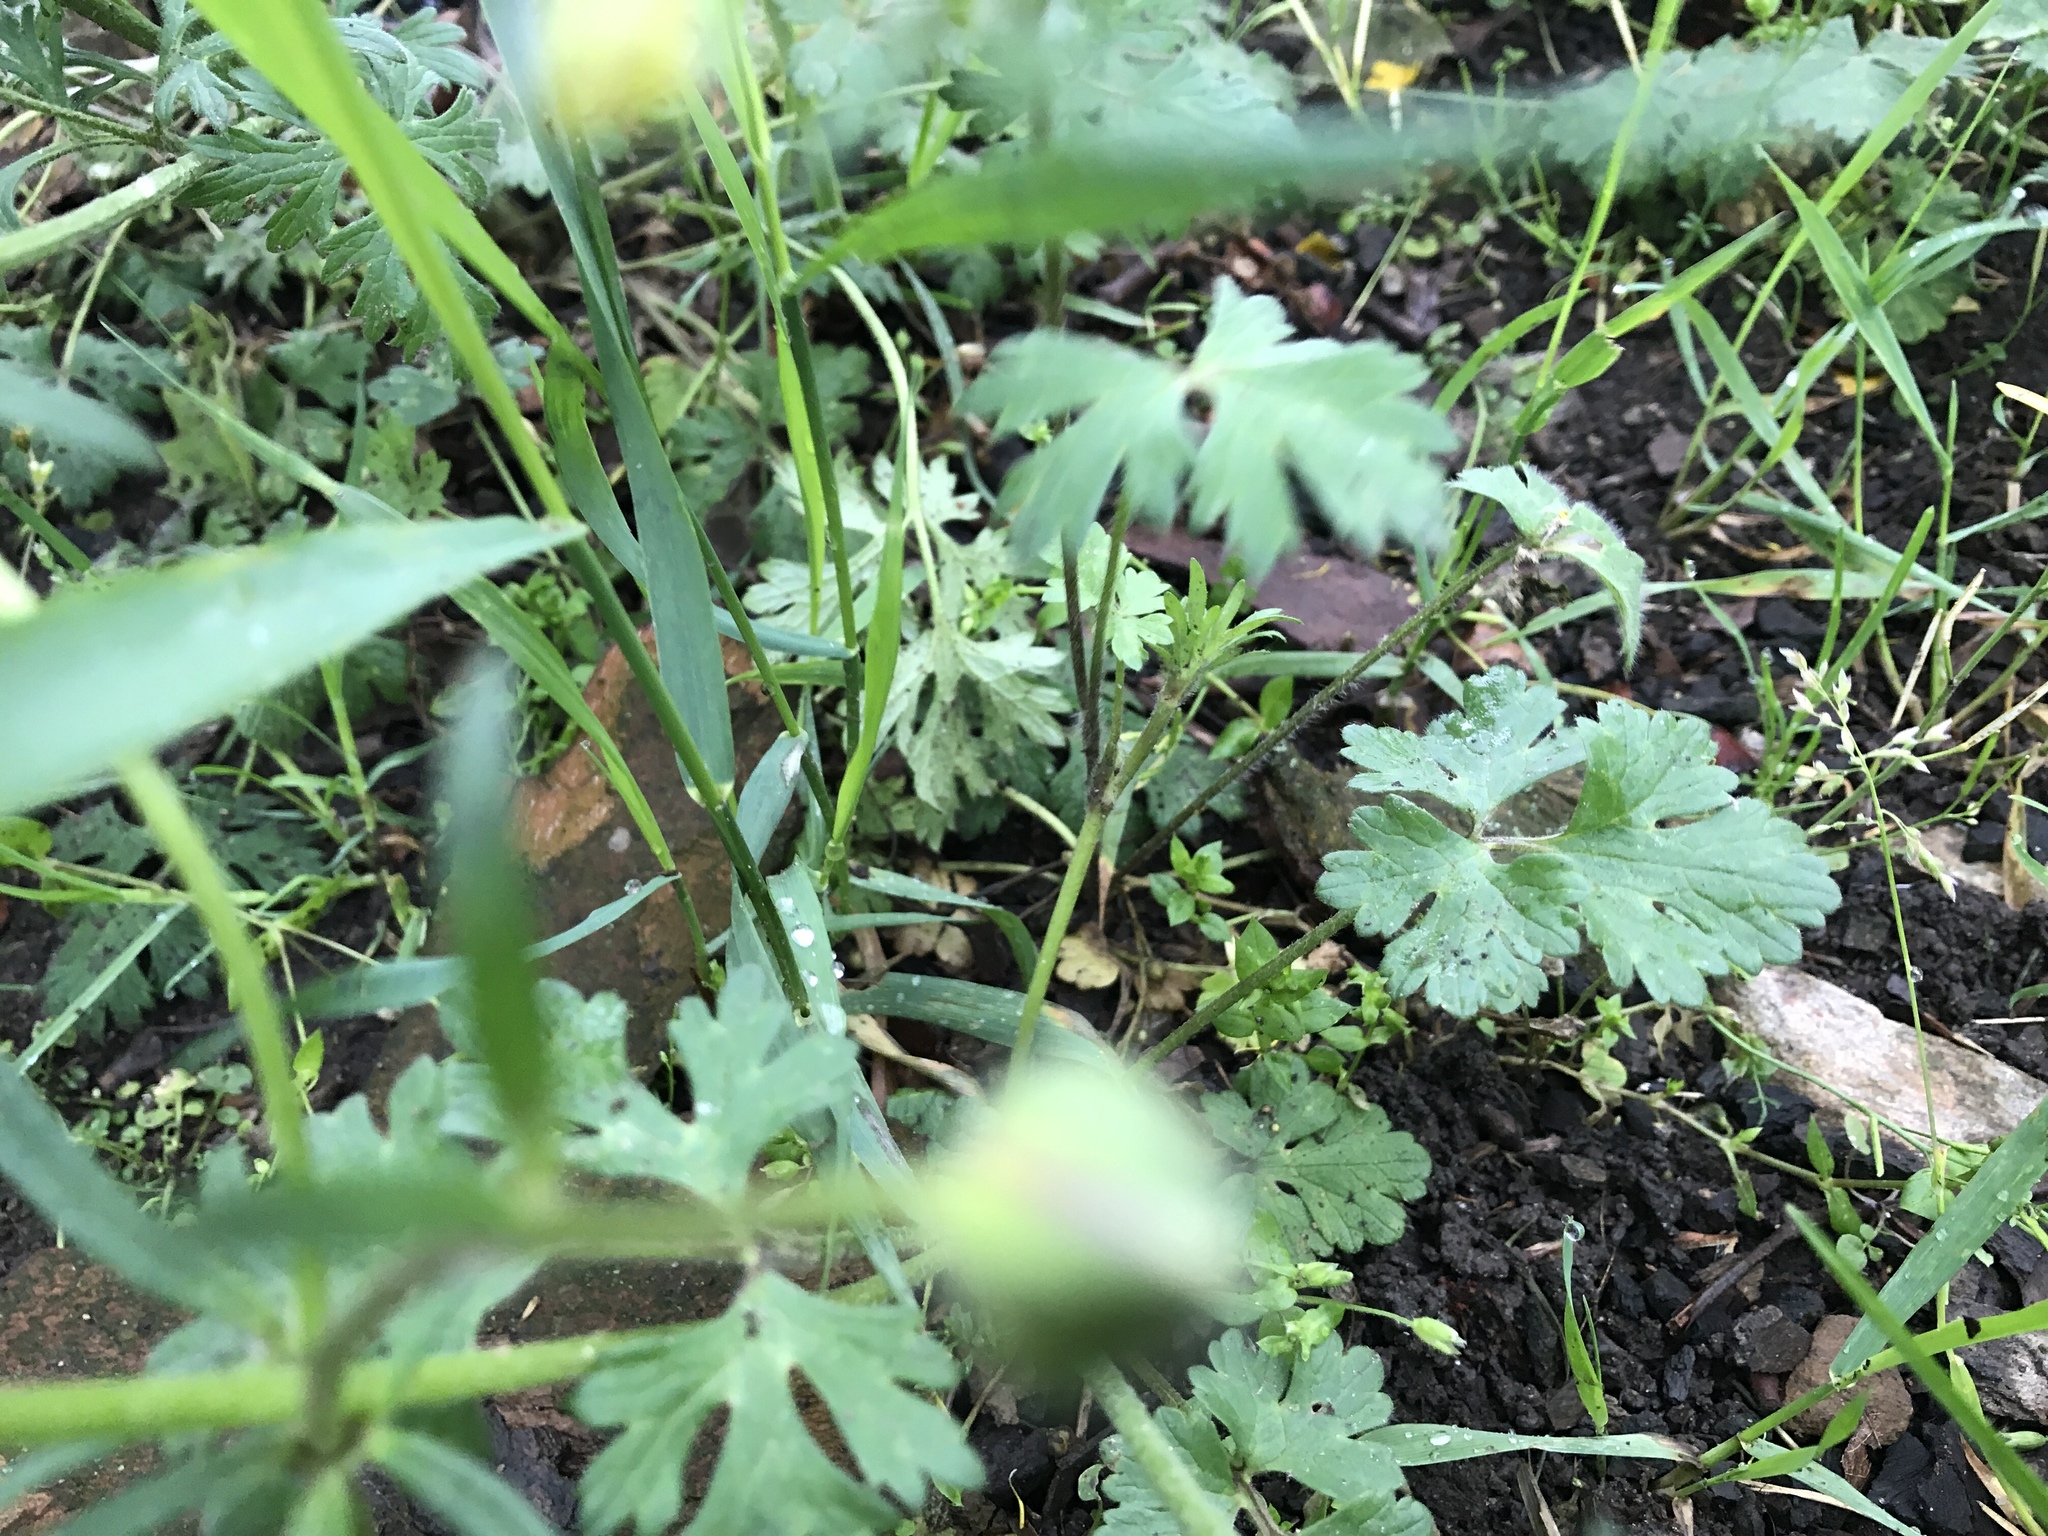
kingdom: Plantae
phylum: Tracheophyta
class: Magnoliopsida
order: Ranunculales
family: Ranunculaceae
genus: Ranunculus
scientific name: Ranunculus bulbosus
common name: Bulbous buttercup
